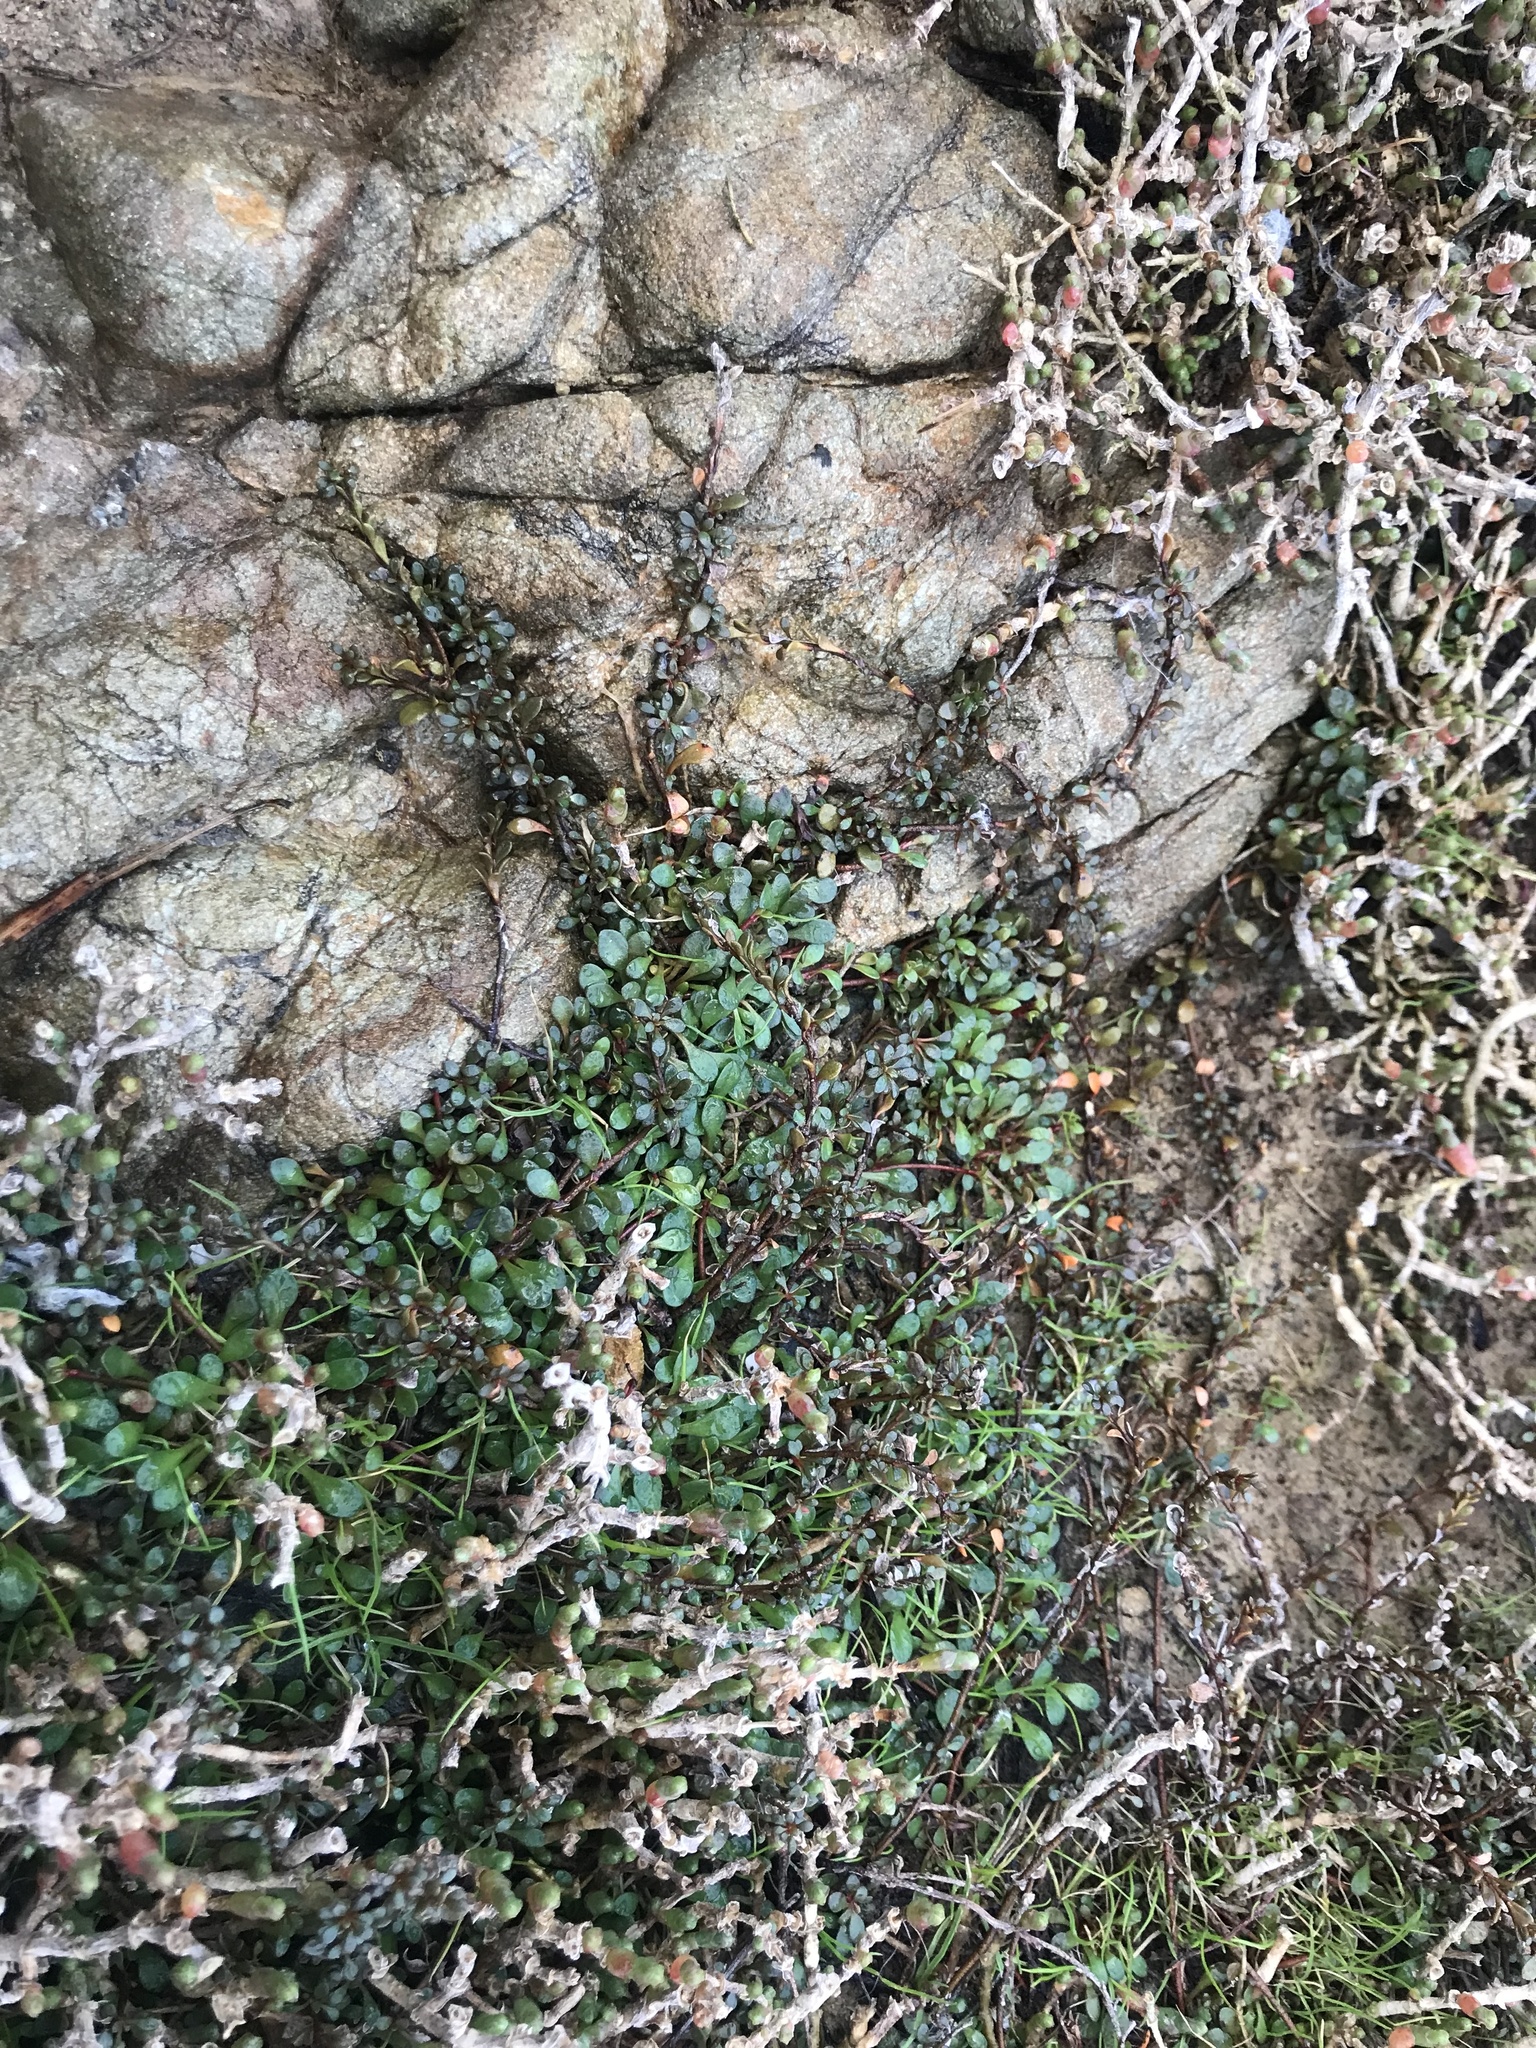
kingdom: Plantae
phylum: Tracheophyta
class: Magnoliopsida
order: Ericales
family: Primulaceae
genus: Samolus
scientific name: Samolus repens
